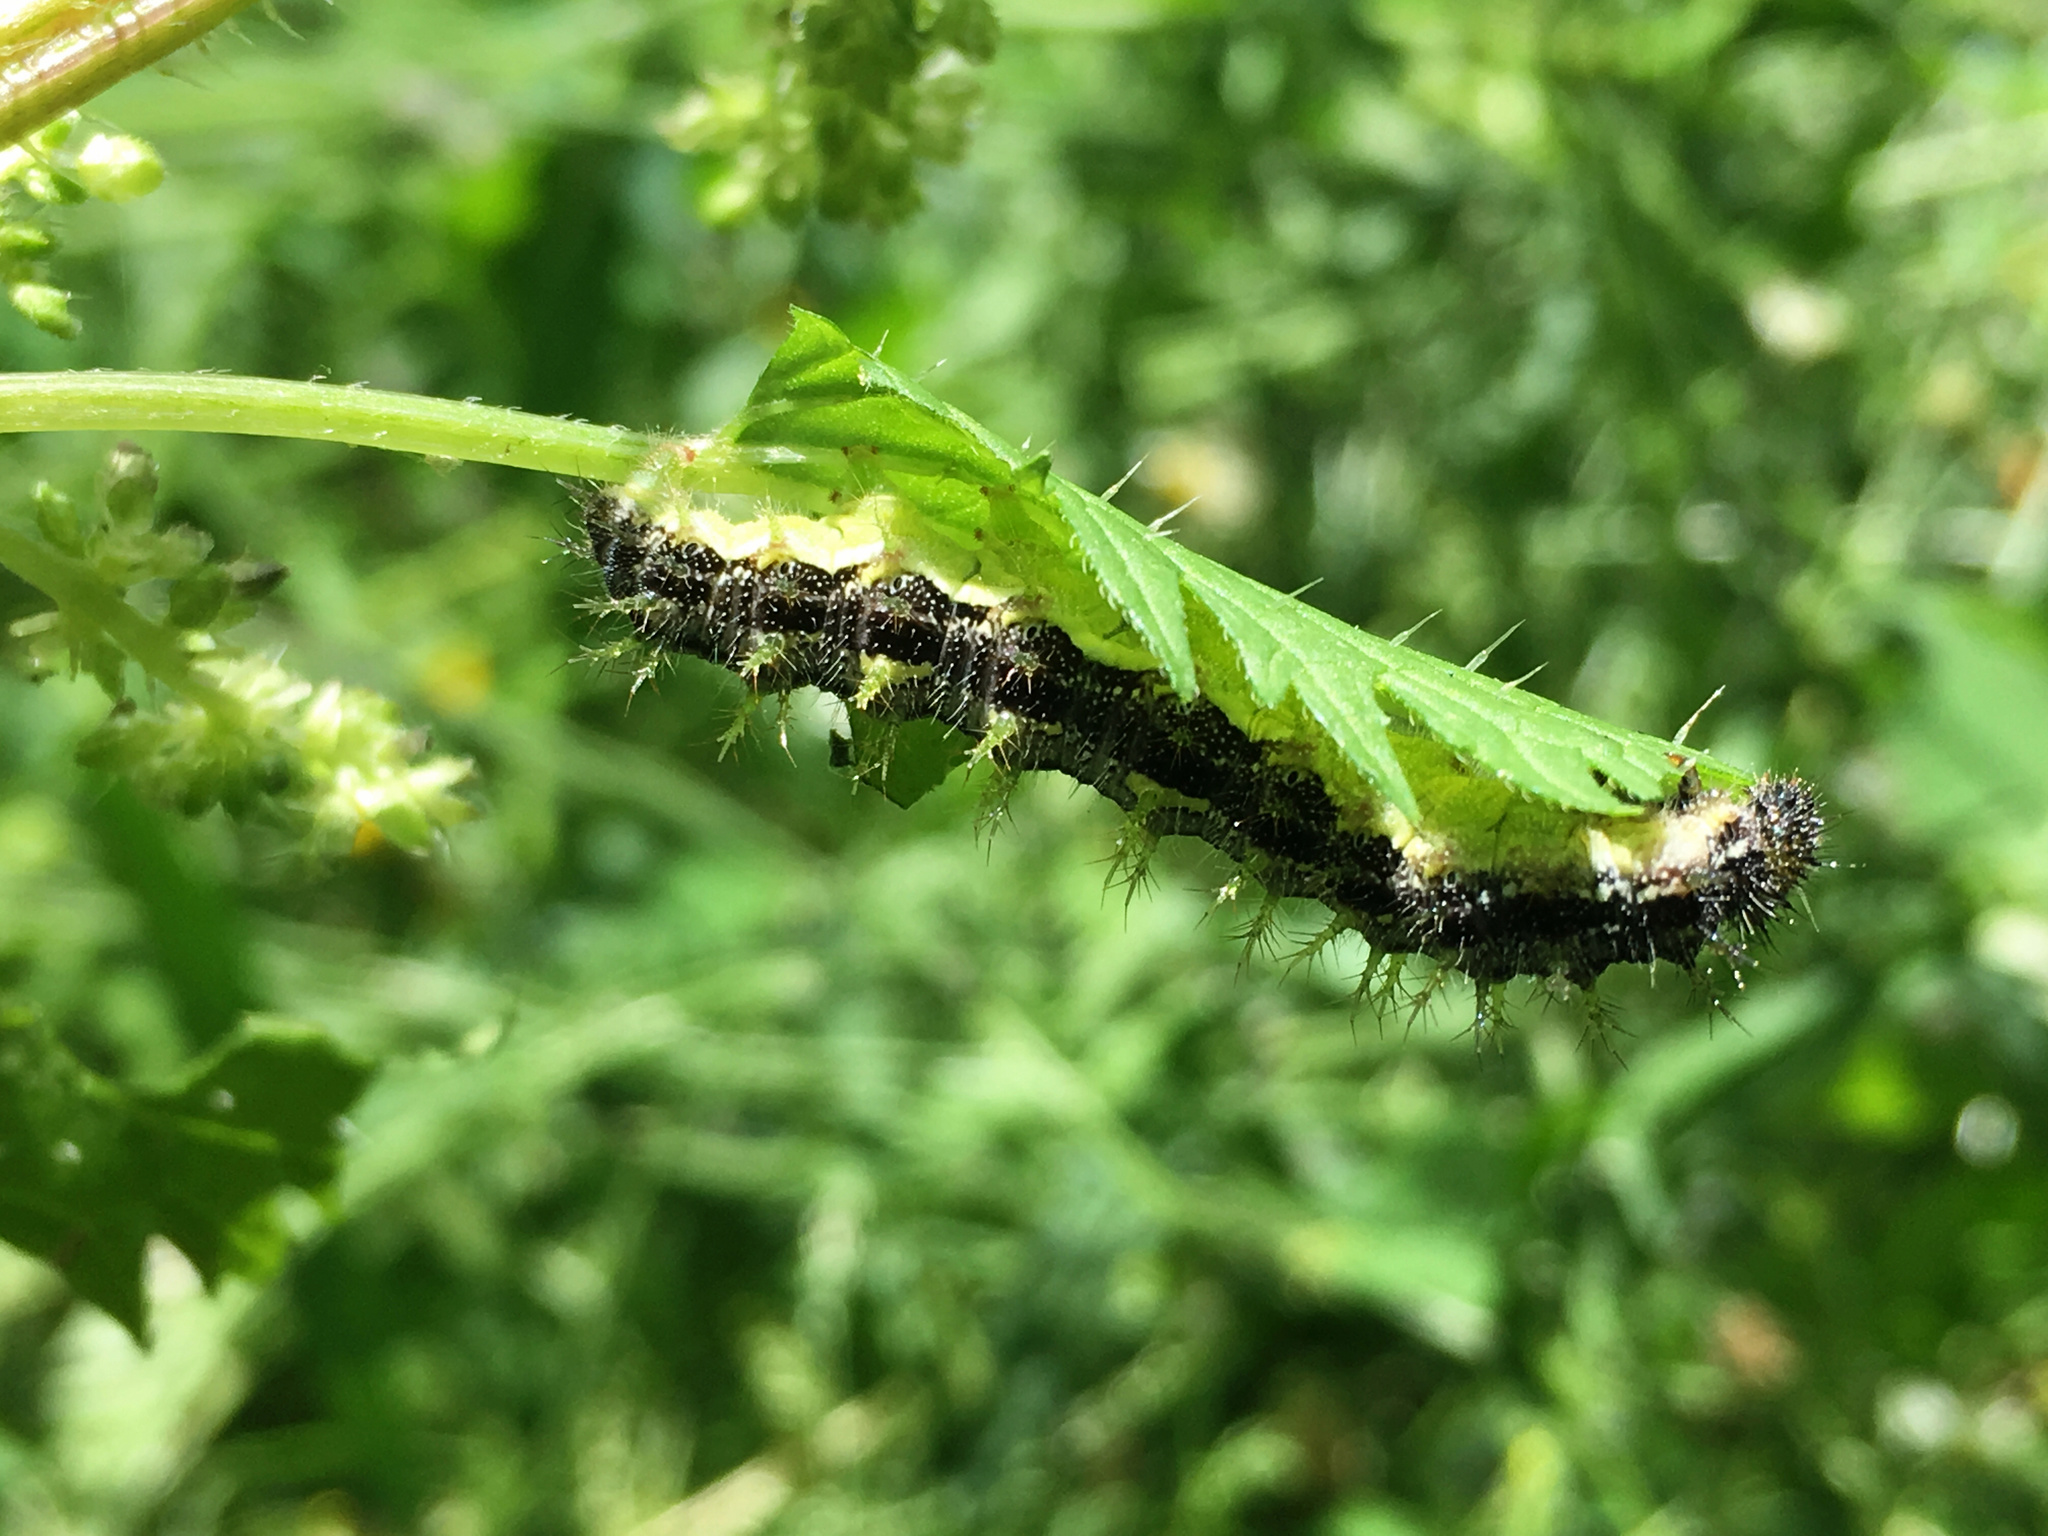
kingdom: Animalia
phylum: Arthropoda
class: Insecta
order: Lepidoptera
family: Nymphalidae
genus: Vanessa
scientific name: Vanessa itea
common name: Yellow admiral
